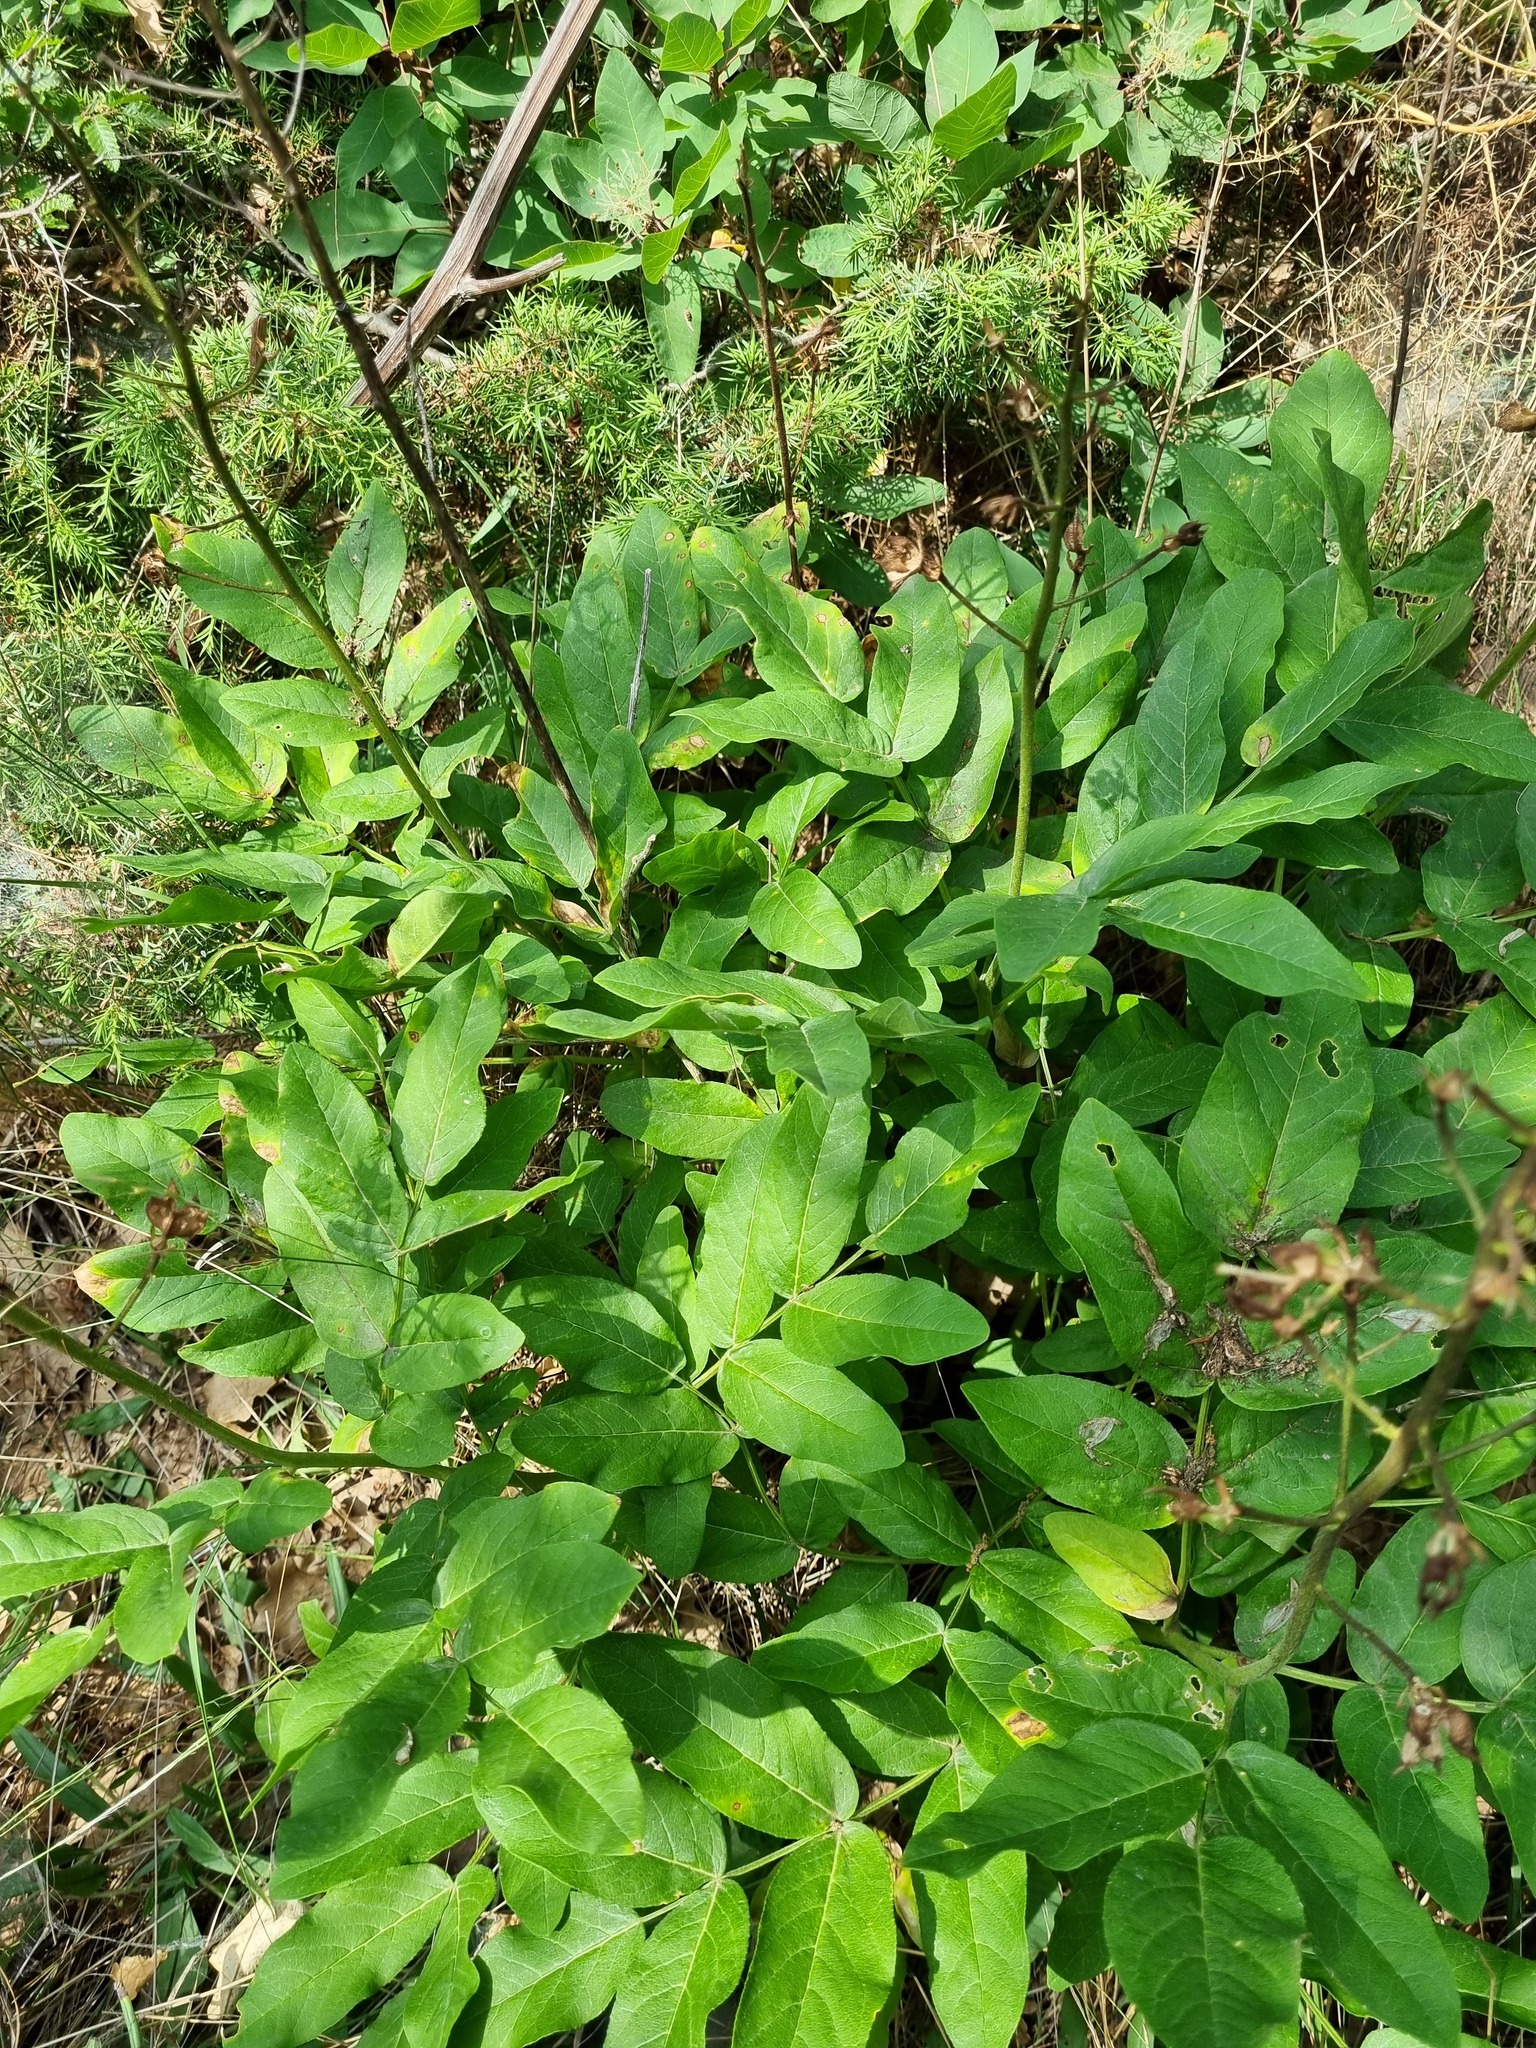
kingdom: Plantae
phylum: Tracheophyta
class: Magnoliopsida
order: Sapindales
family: Rutaceae
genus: Dictamnus
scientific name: Dictamnus albus
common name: Gasplant
